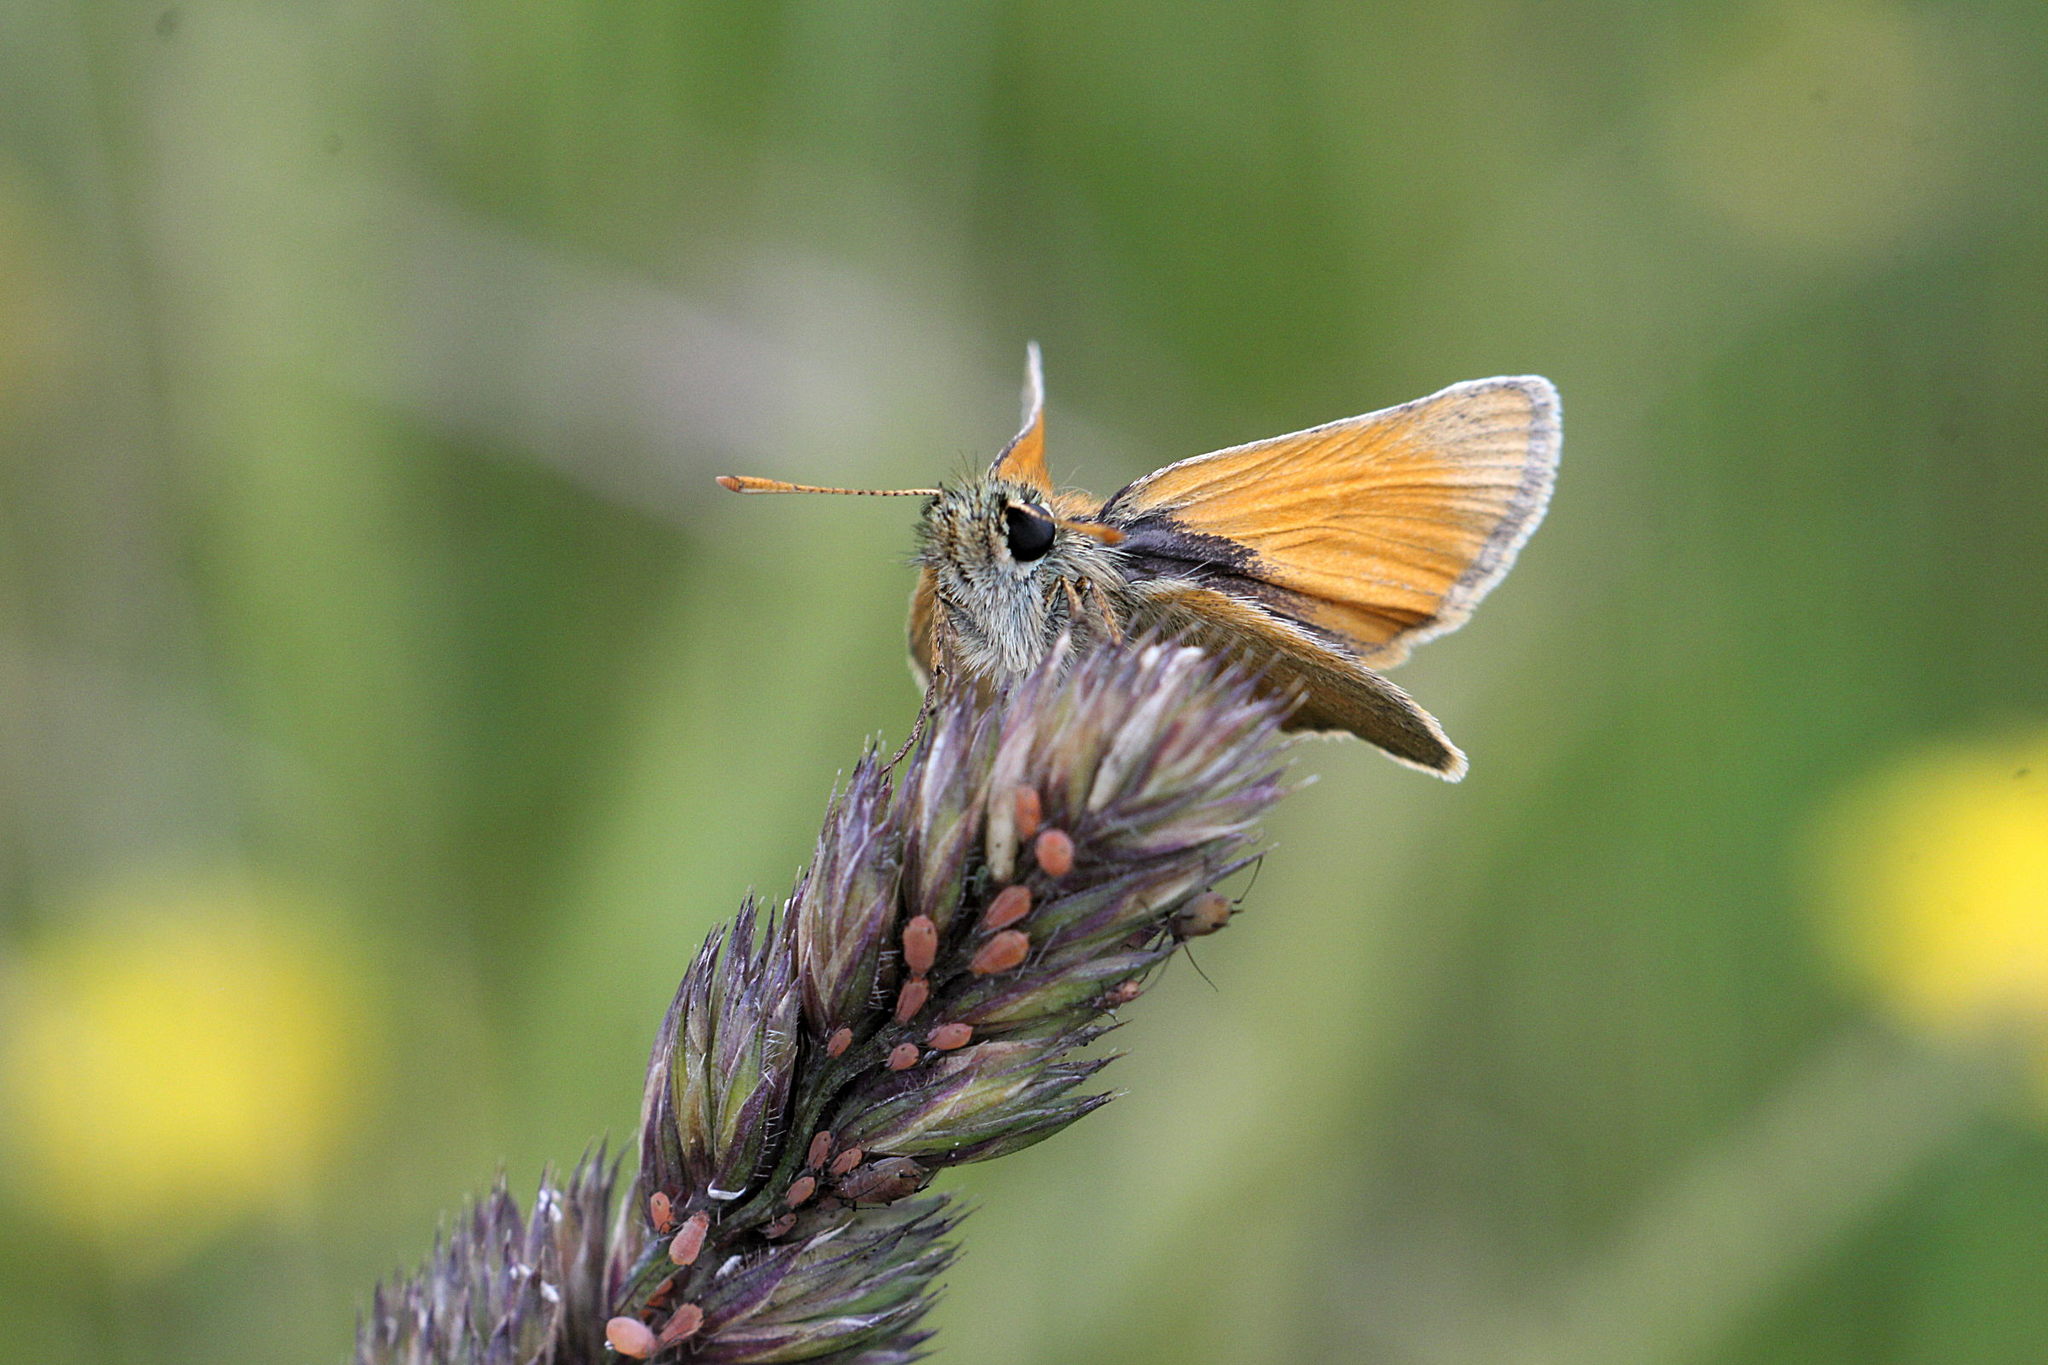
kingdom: Animalia
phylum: Arthropoda
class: Insecta
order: Lepidoptera
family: Hesperiidae
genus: Thymelicus
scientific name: Thymelicus sylvestris
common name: Small skipper
